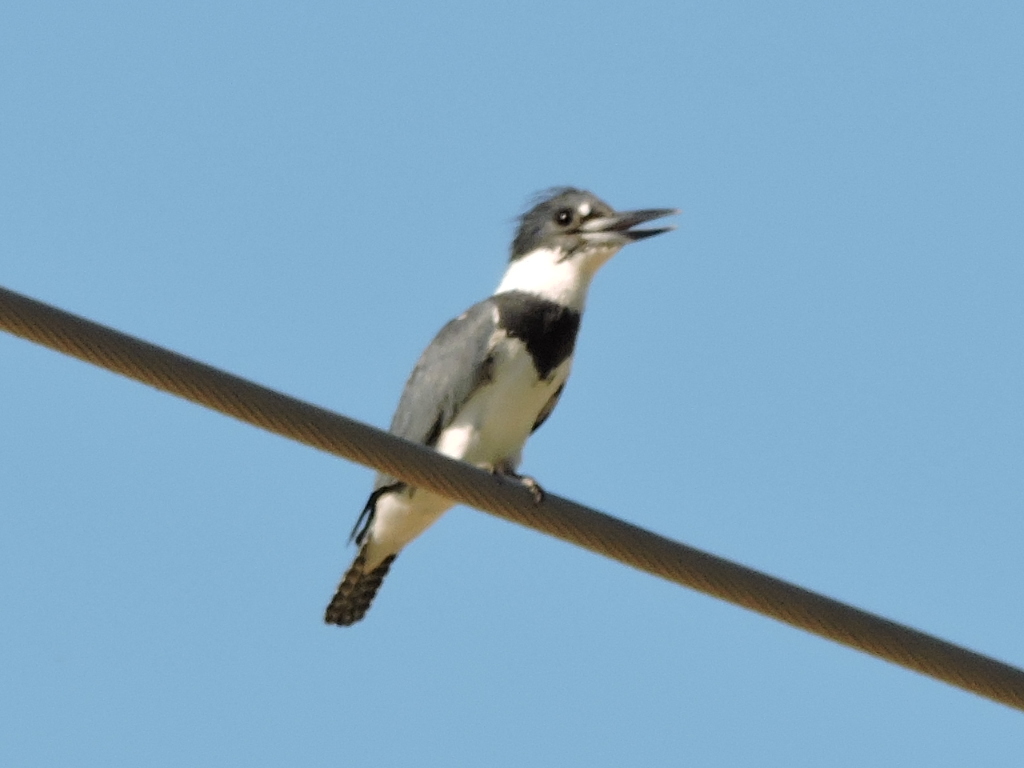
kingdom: Animalia
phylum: Chordata
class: Aves
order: Coraciiformes
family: Alcedinidae
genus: Megaceryle
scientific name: Megaceryle alcyon
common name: Belted kingfisher
